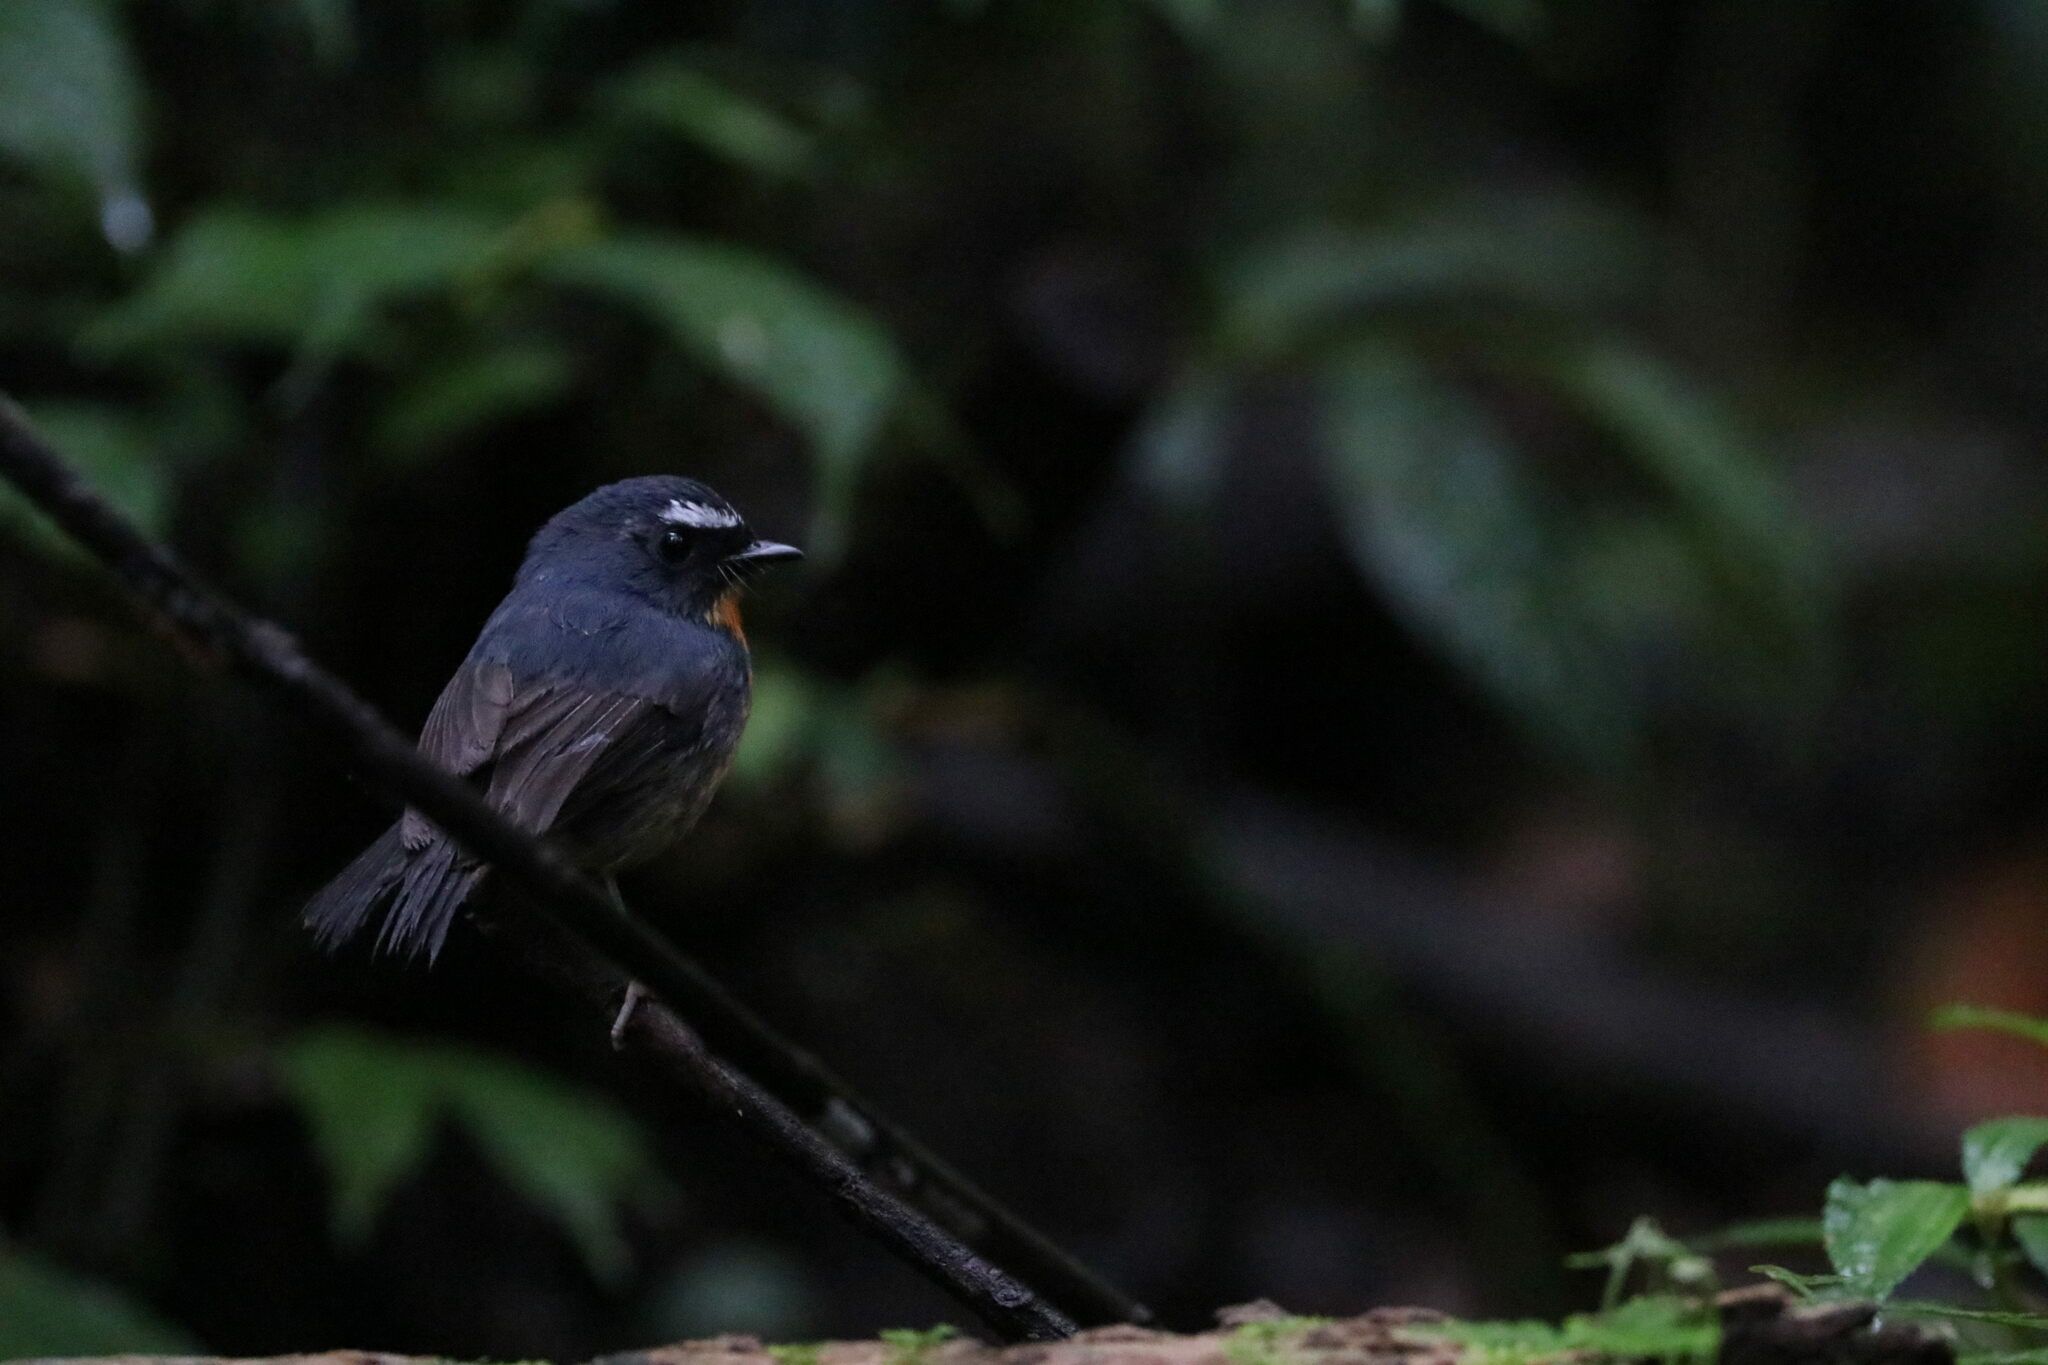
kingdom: Animalia
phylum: Chordata
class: Aves
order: Passeriformes
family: Muscicapidae
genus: Ficedula
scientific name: Ficedula hyperythra
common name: Snowy-browed flycatcher
